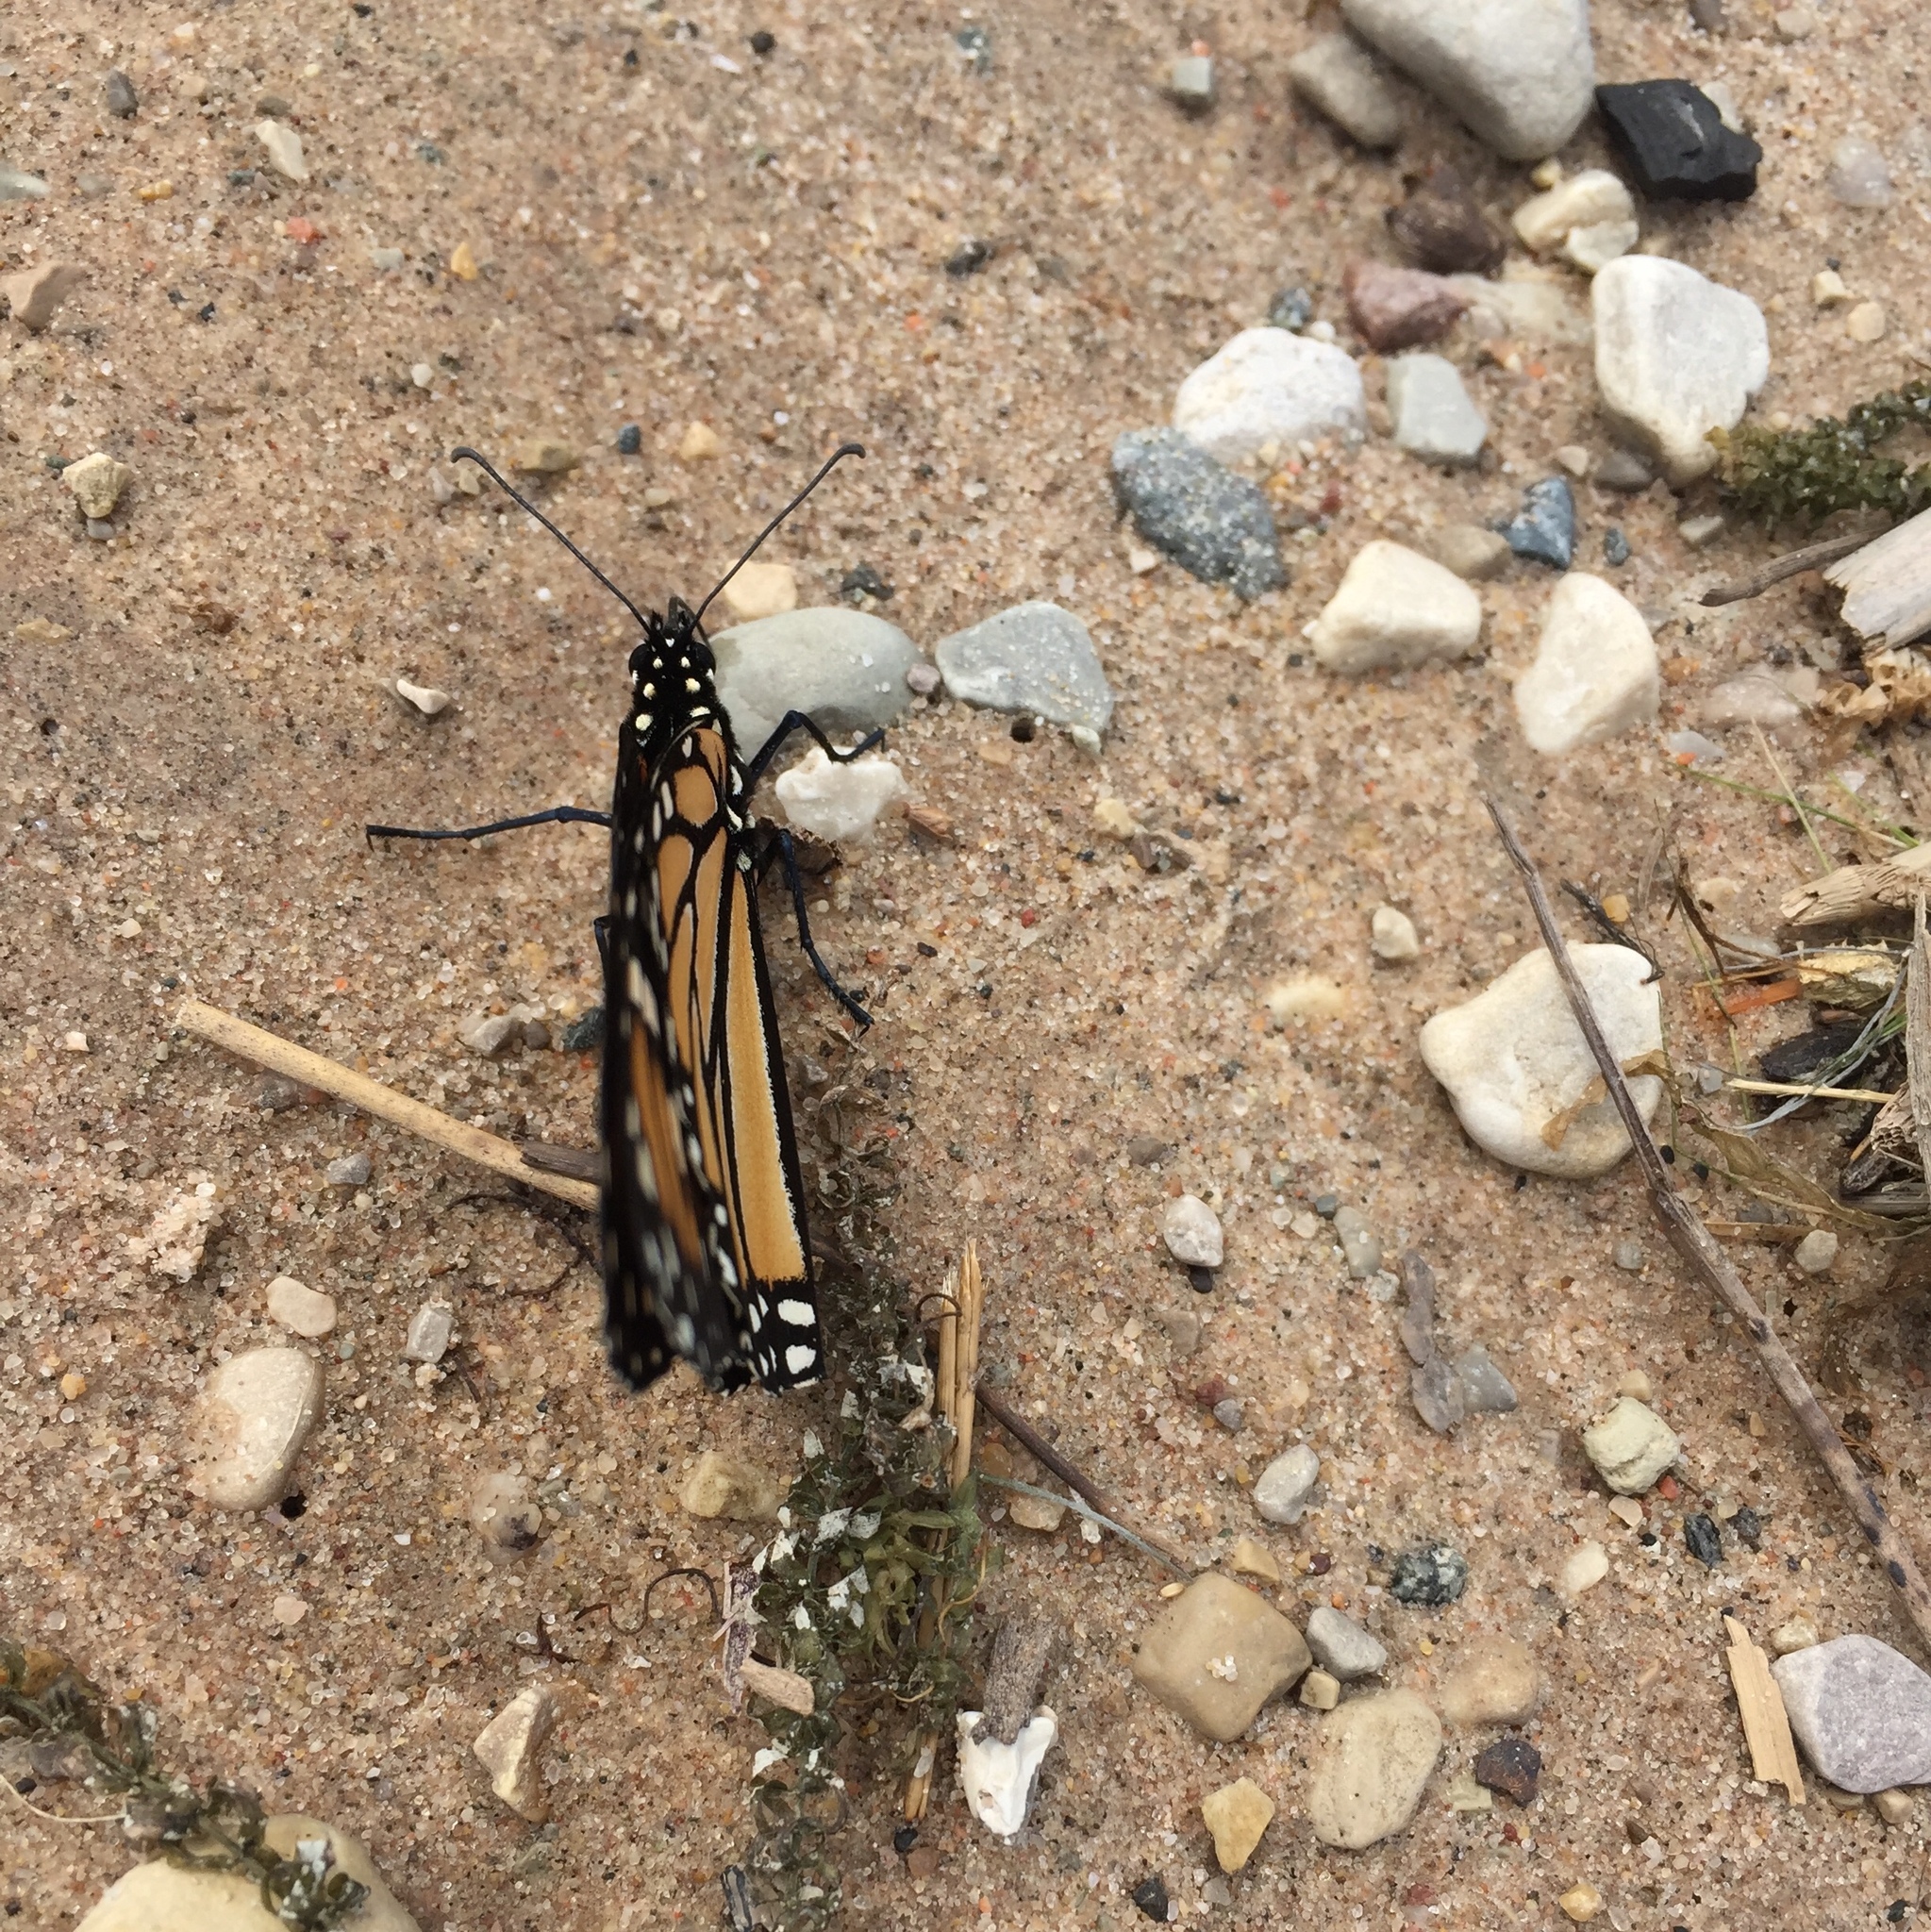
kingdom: Animalia
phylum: Arthropoda
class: Insecta
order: Lepidoptera
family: Nymphalidae
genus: Danaus
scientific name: Danaus plexippus
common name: Monarch
